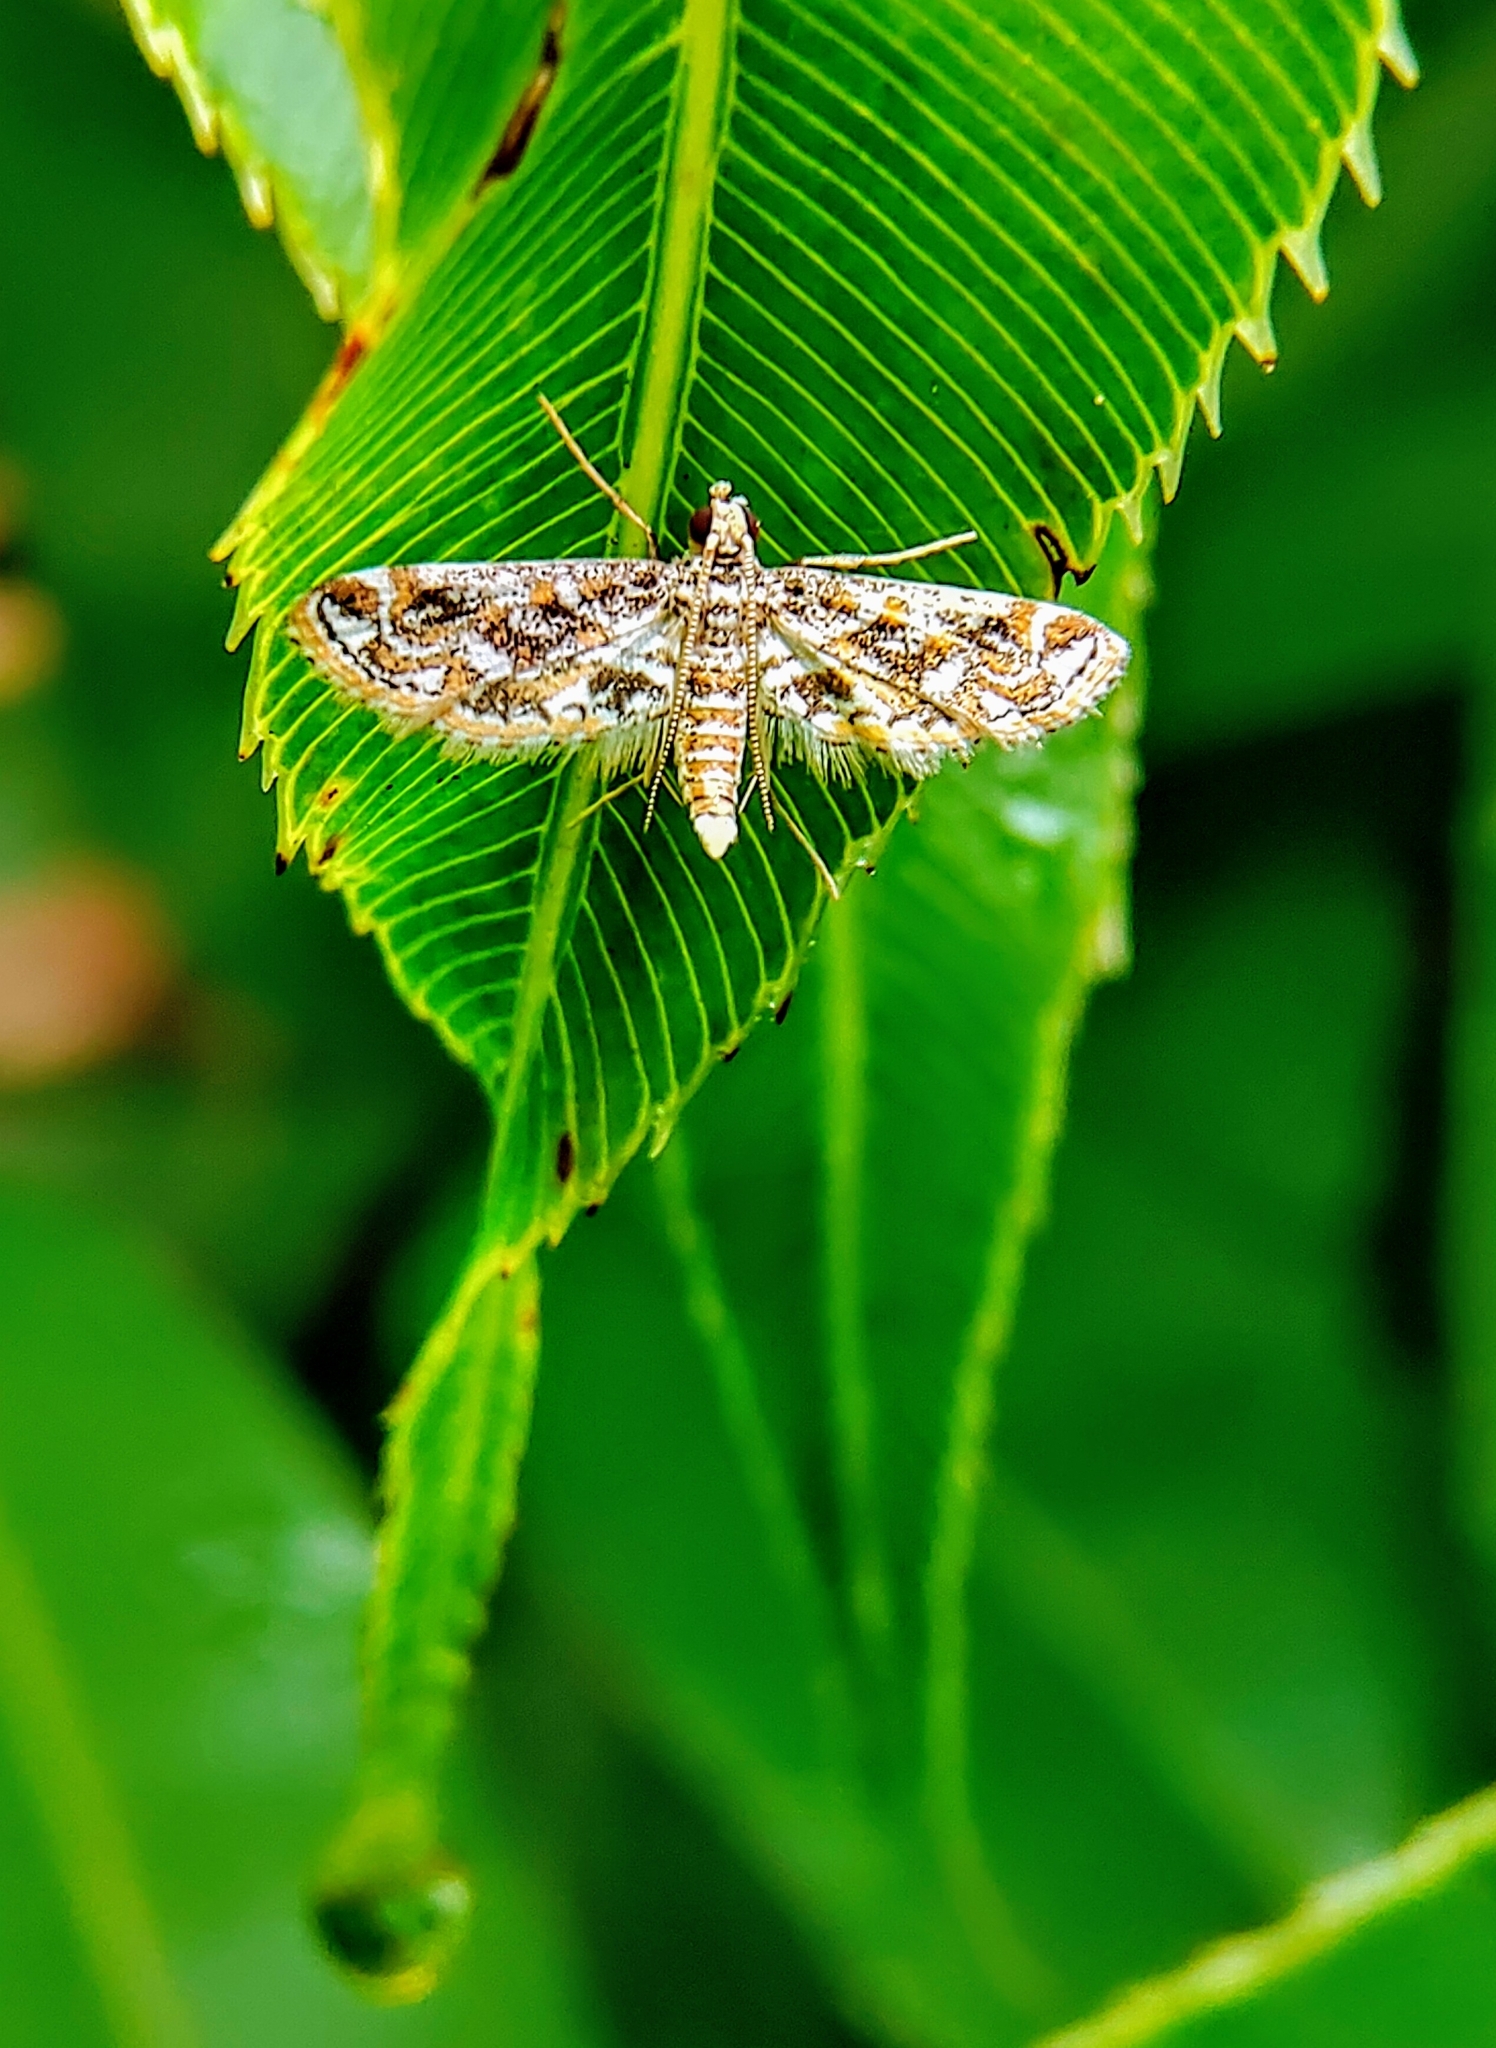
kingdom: Animalia
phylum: Arthropoda
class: Insecta
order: Lepidoptera
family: Crambidae
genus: Parapoynx
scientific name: Parapoynx diminutalis
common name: Hydrilla leafcutter
